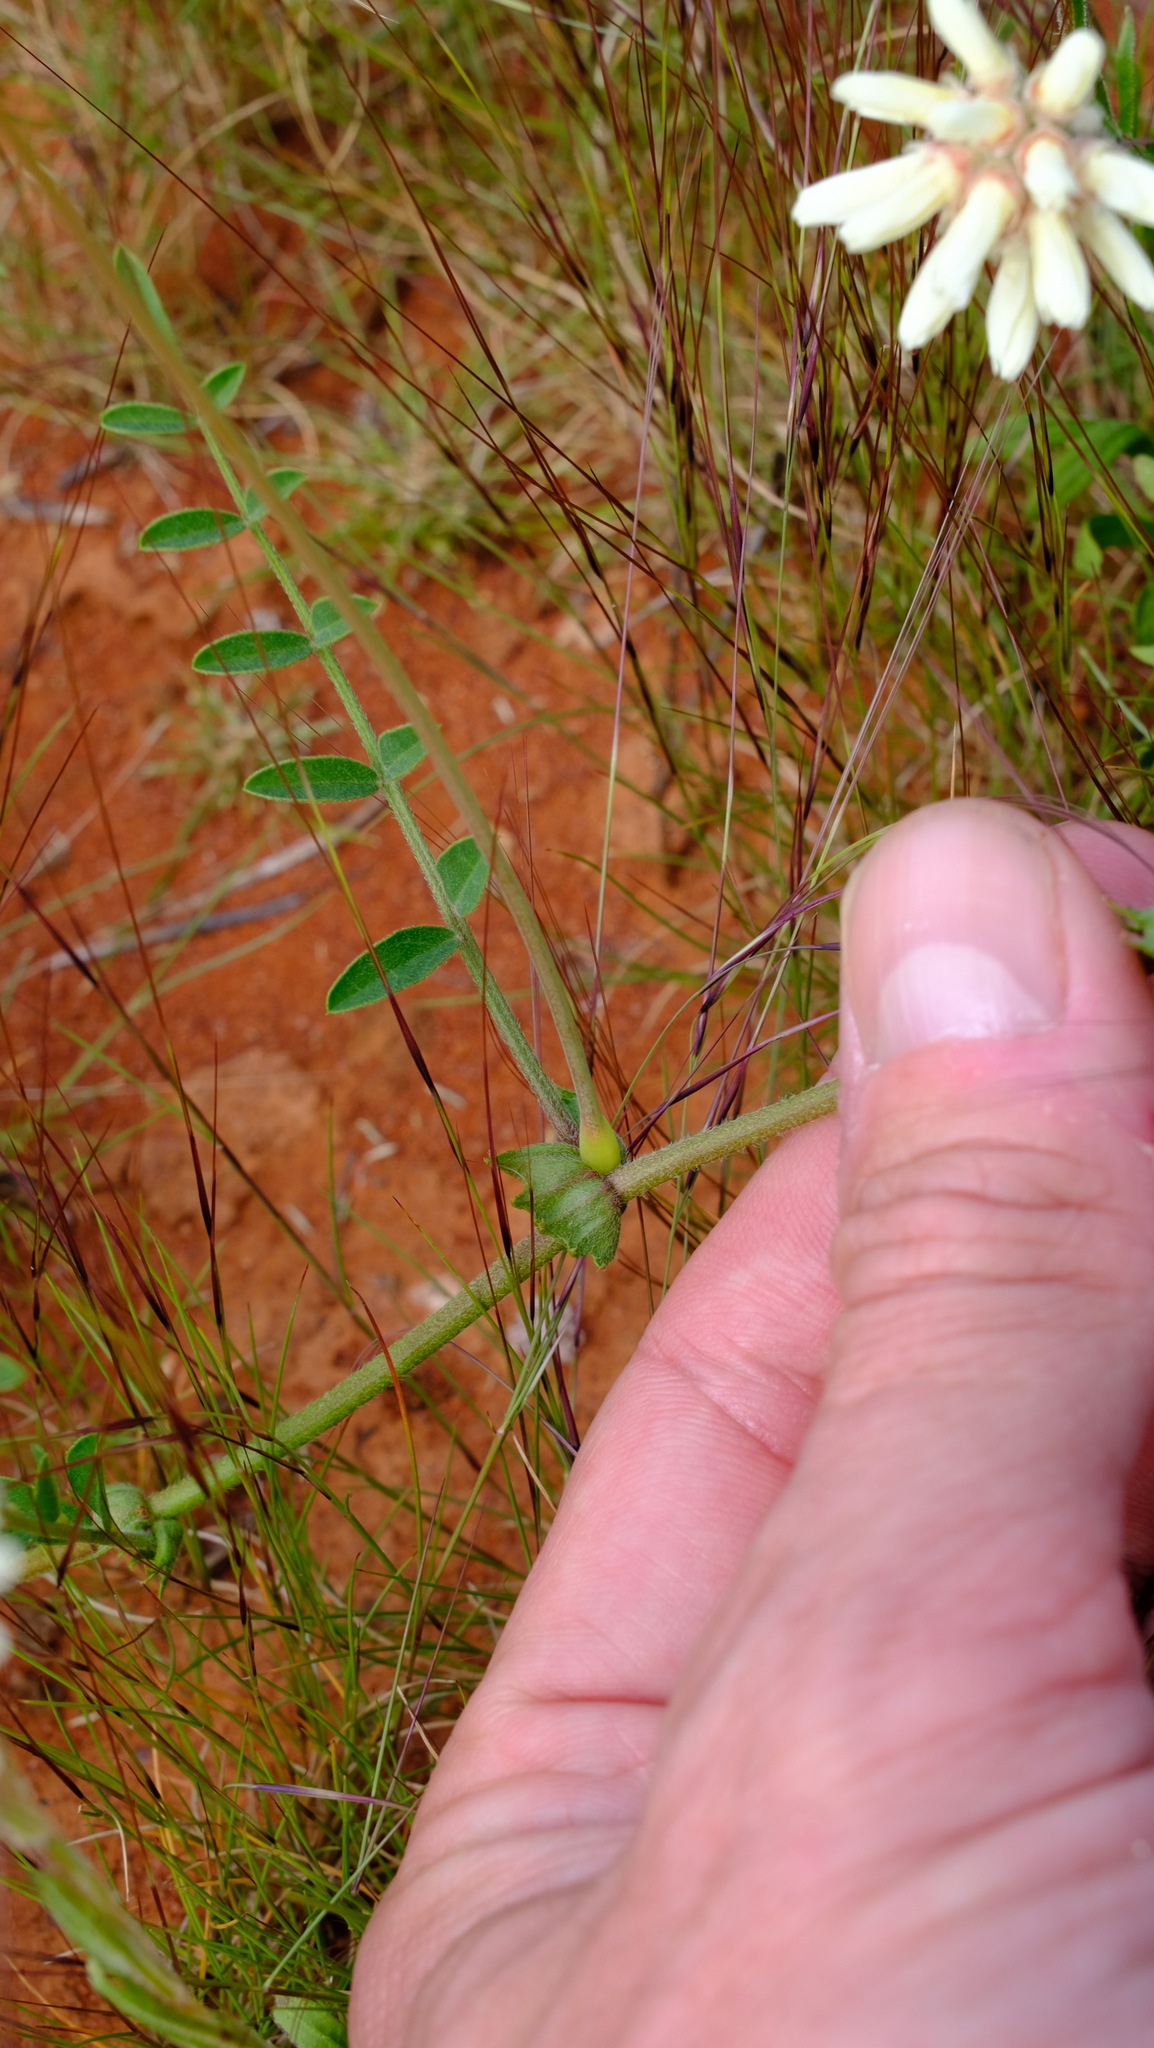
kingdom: Plantae
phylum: Tracheophyta
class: Magnoliopsida
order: Fabales
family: Fabaceae
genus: Swainsona
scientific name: Swainsona elegans
